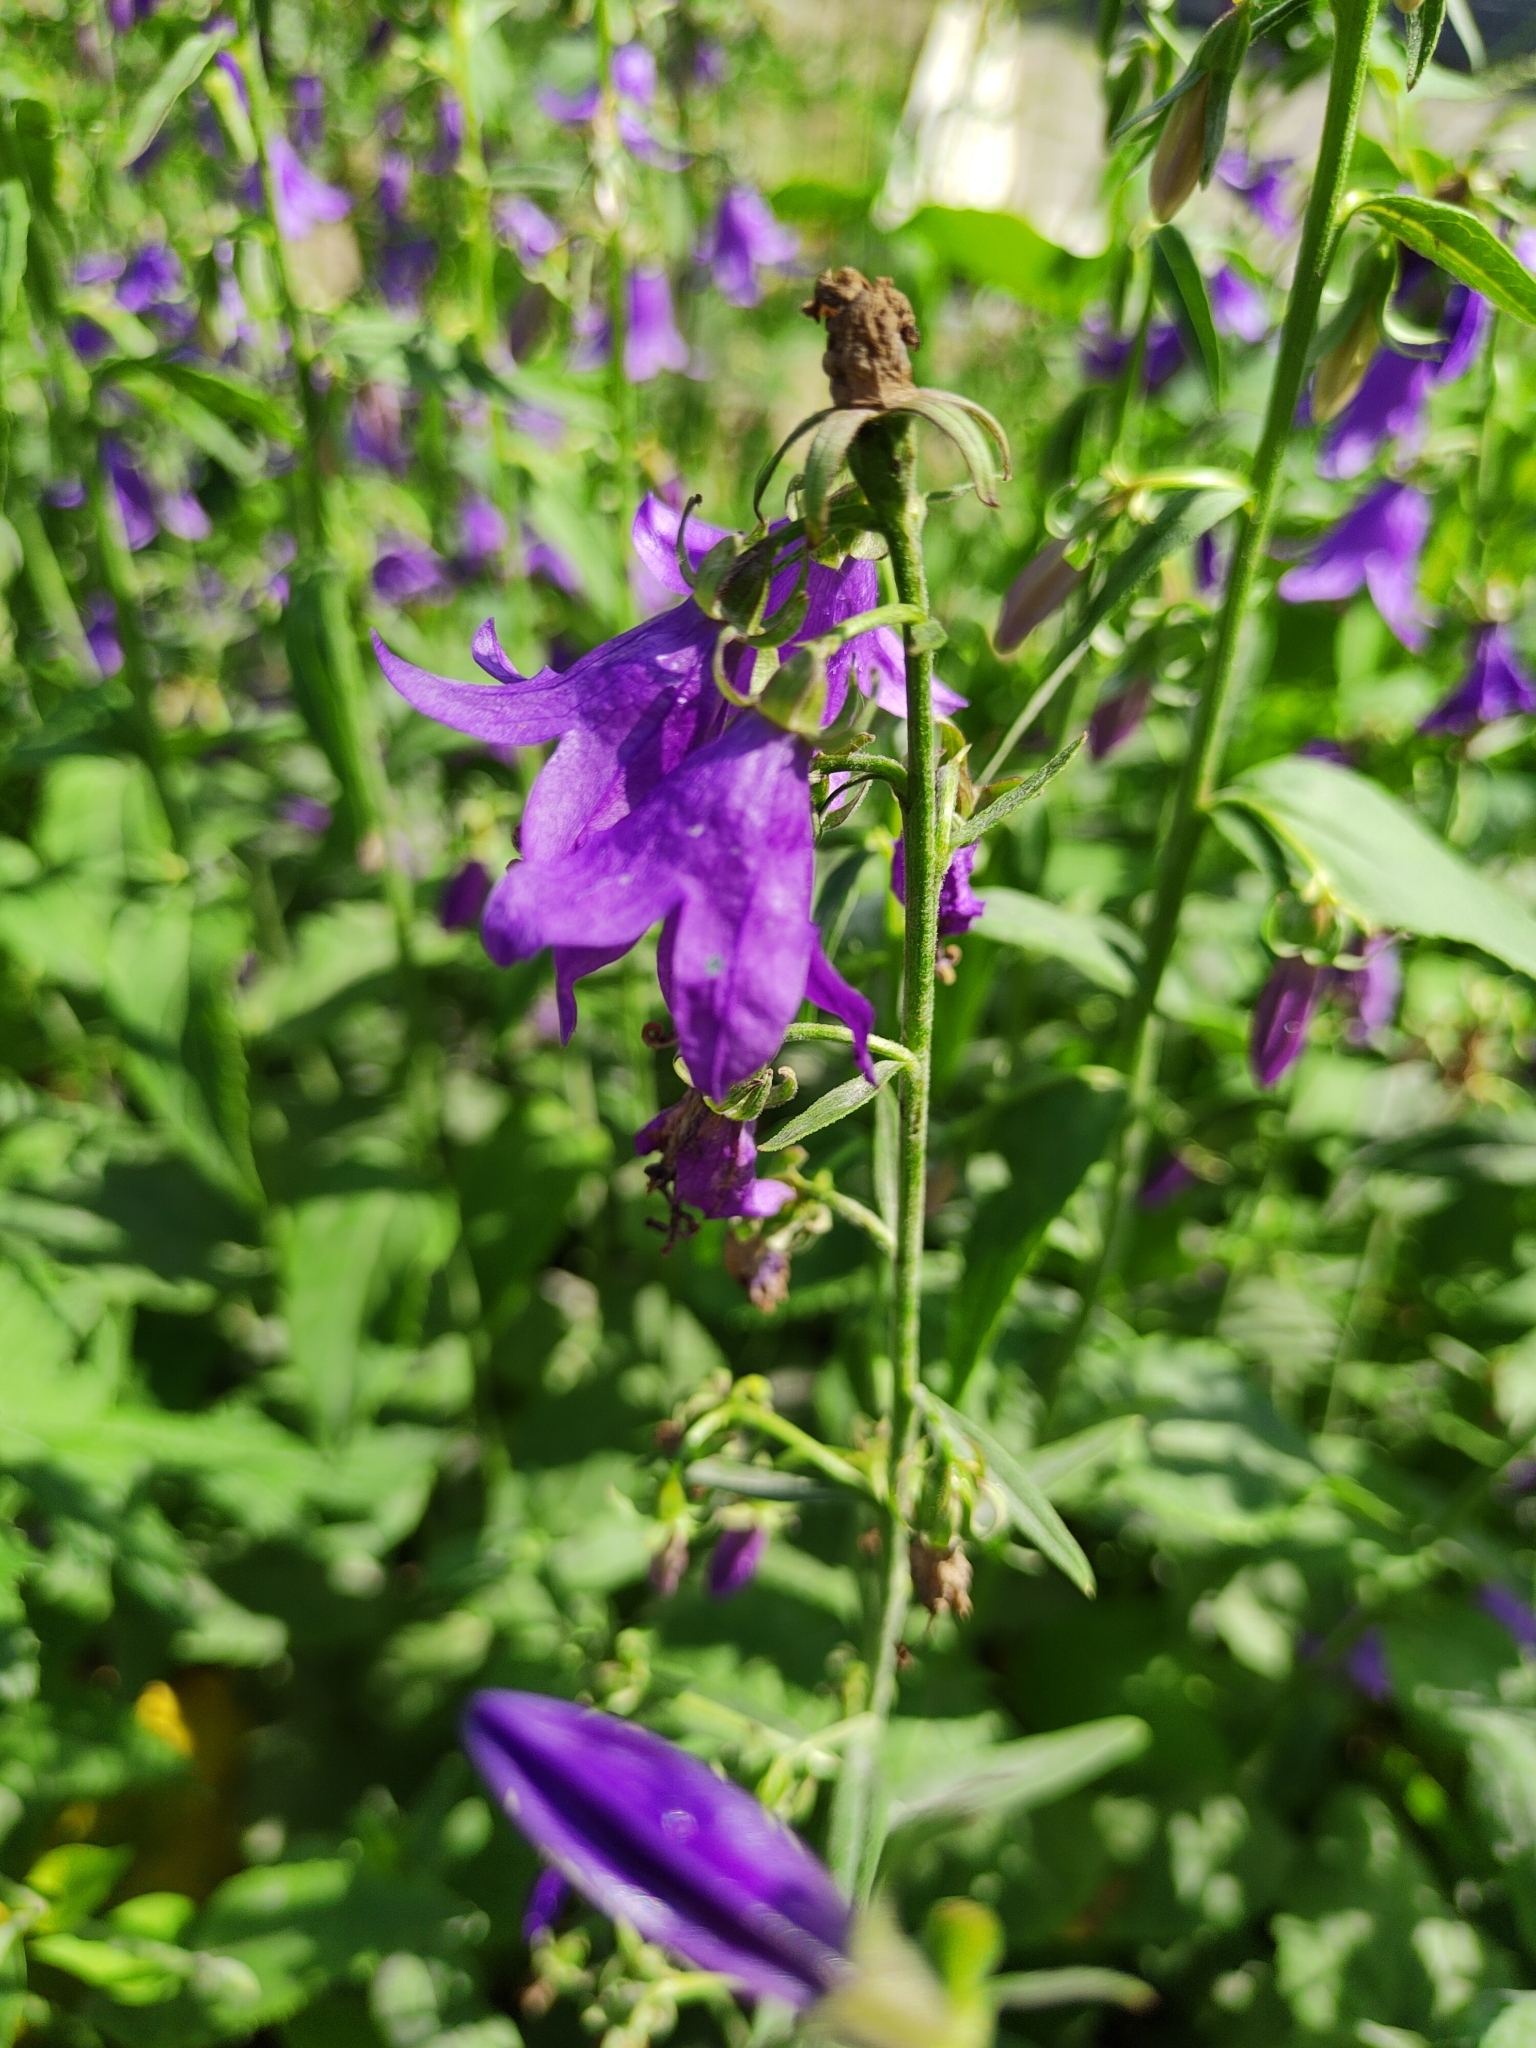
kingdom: Plantae
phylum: Tracheophyta
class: Magnoliopsida
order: Asterales
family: Campanulaceae
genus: Campanula
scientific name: Campanula rapunculoides
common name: Creeping bellflower
